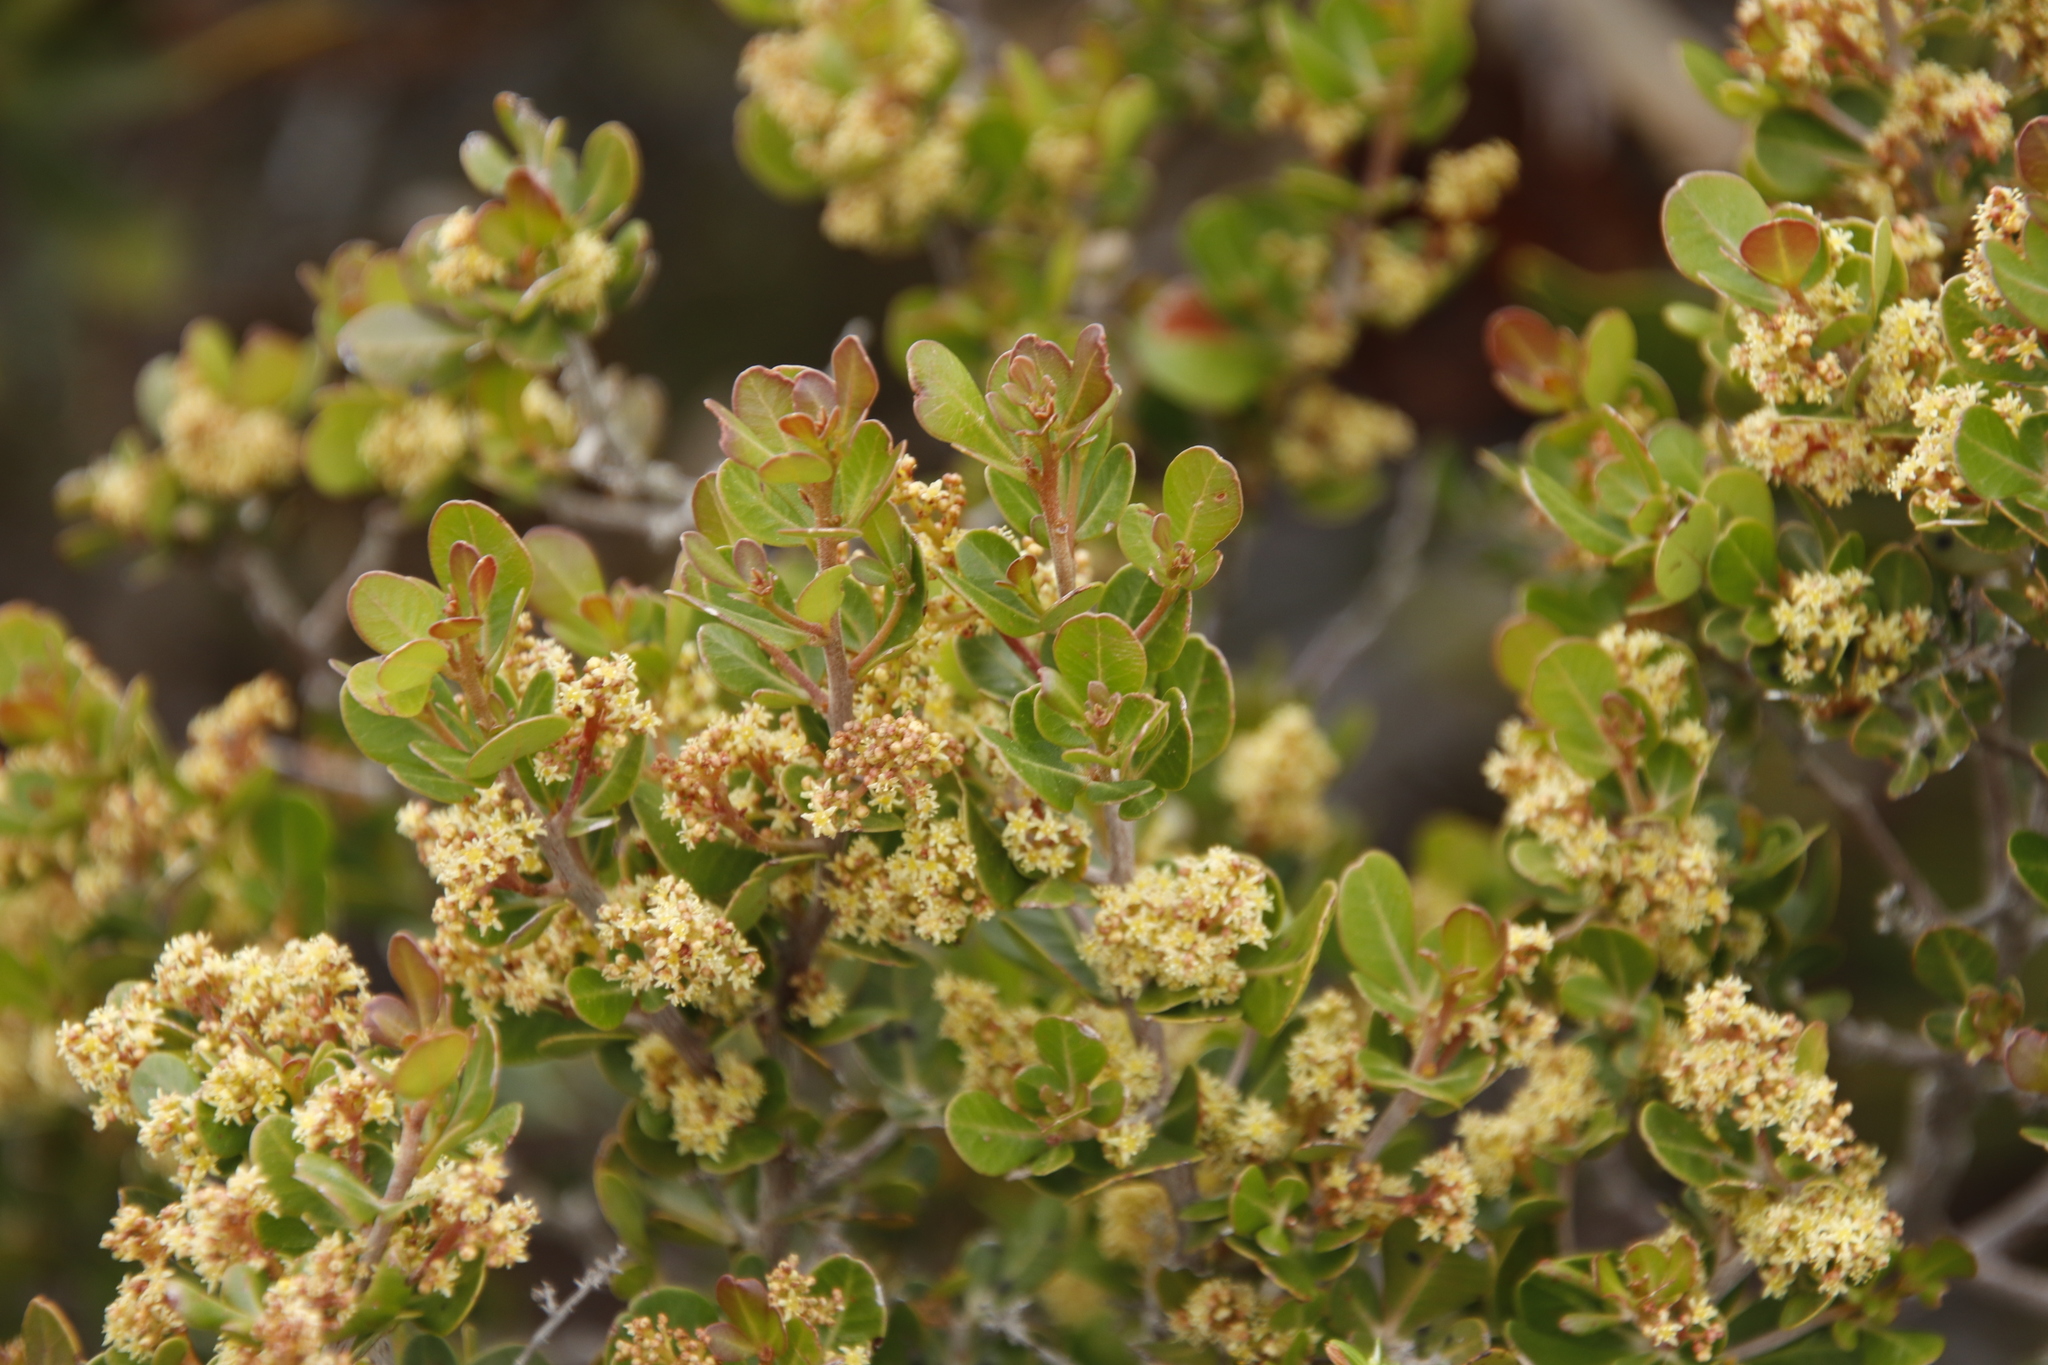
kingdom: Plantae
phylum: Tracheophyta
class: Magnoliopsida
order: Sapindales
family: Anacardiaceae
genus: Searsia
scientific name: Searsia lucida
